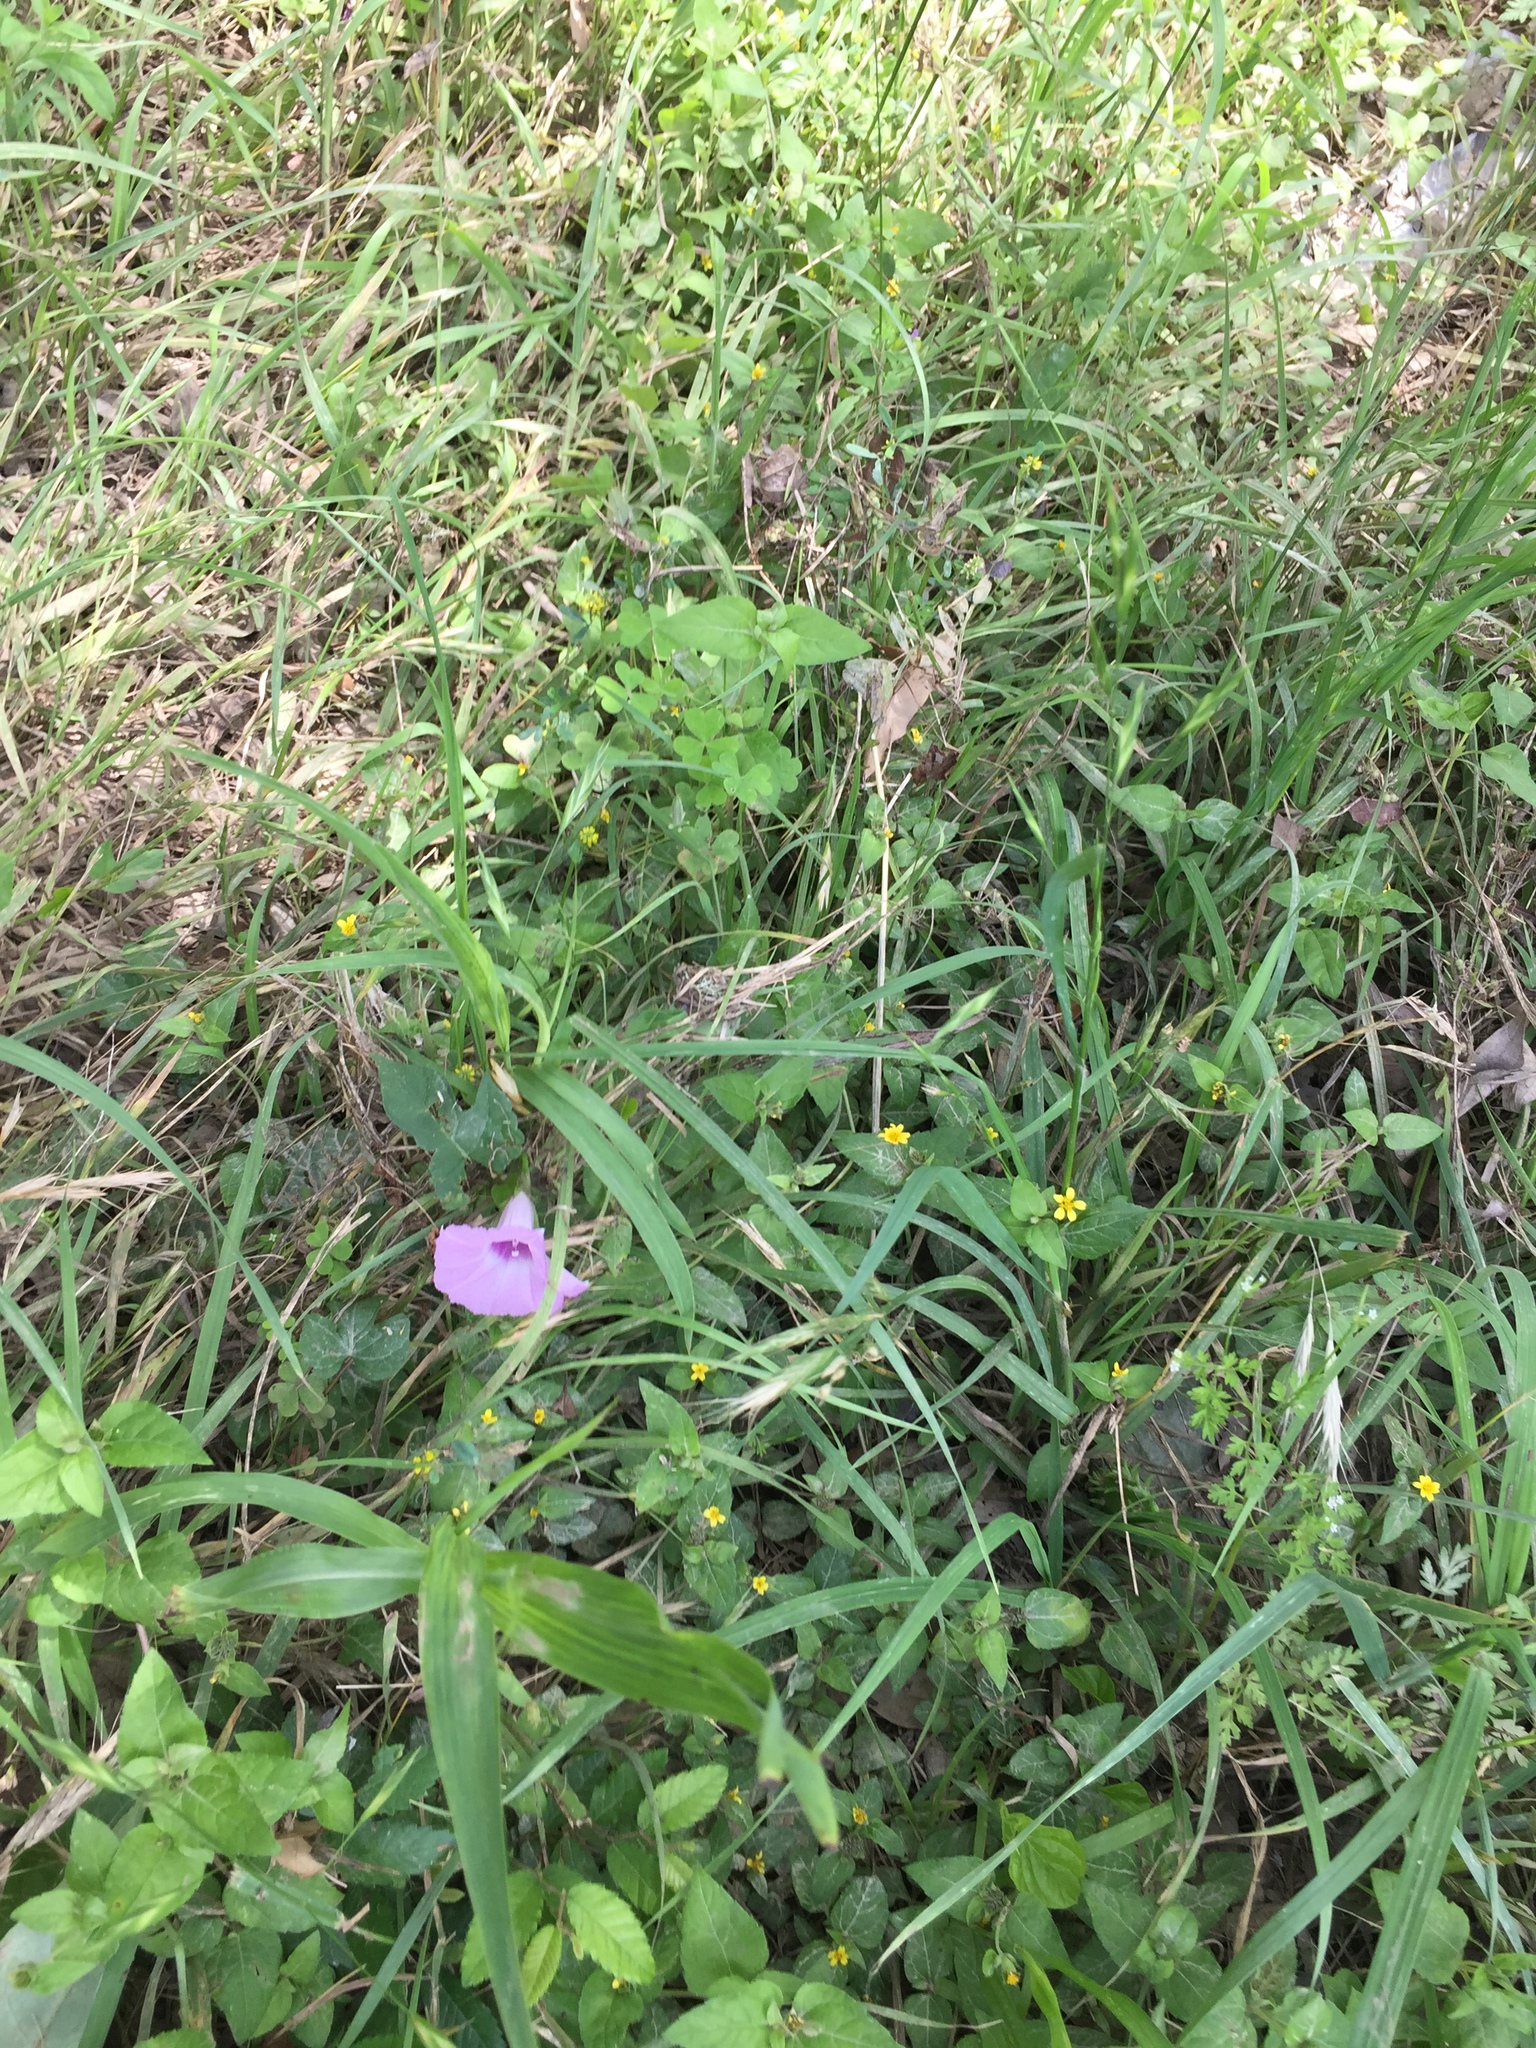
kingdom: Plantae
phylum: Tracheophyta
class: Magnoliopsida
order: Solanales
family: Convolvulaceae
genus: Ipomoea
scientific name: Ipomoea cordatotriloba
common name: Cotton morning glory
